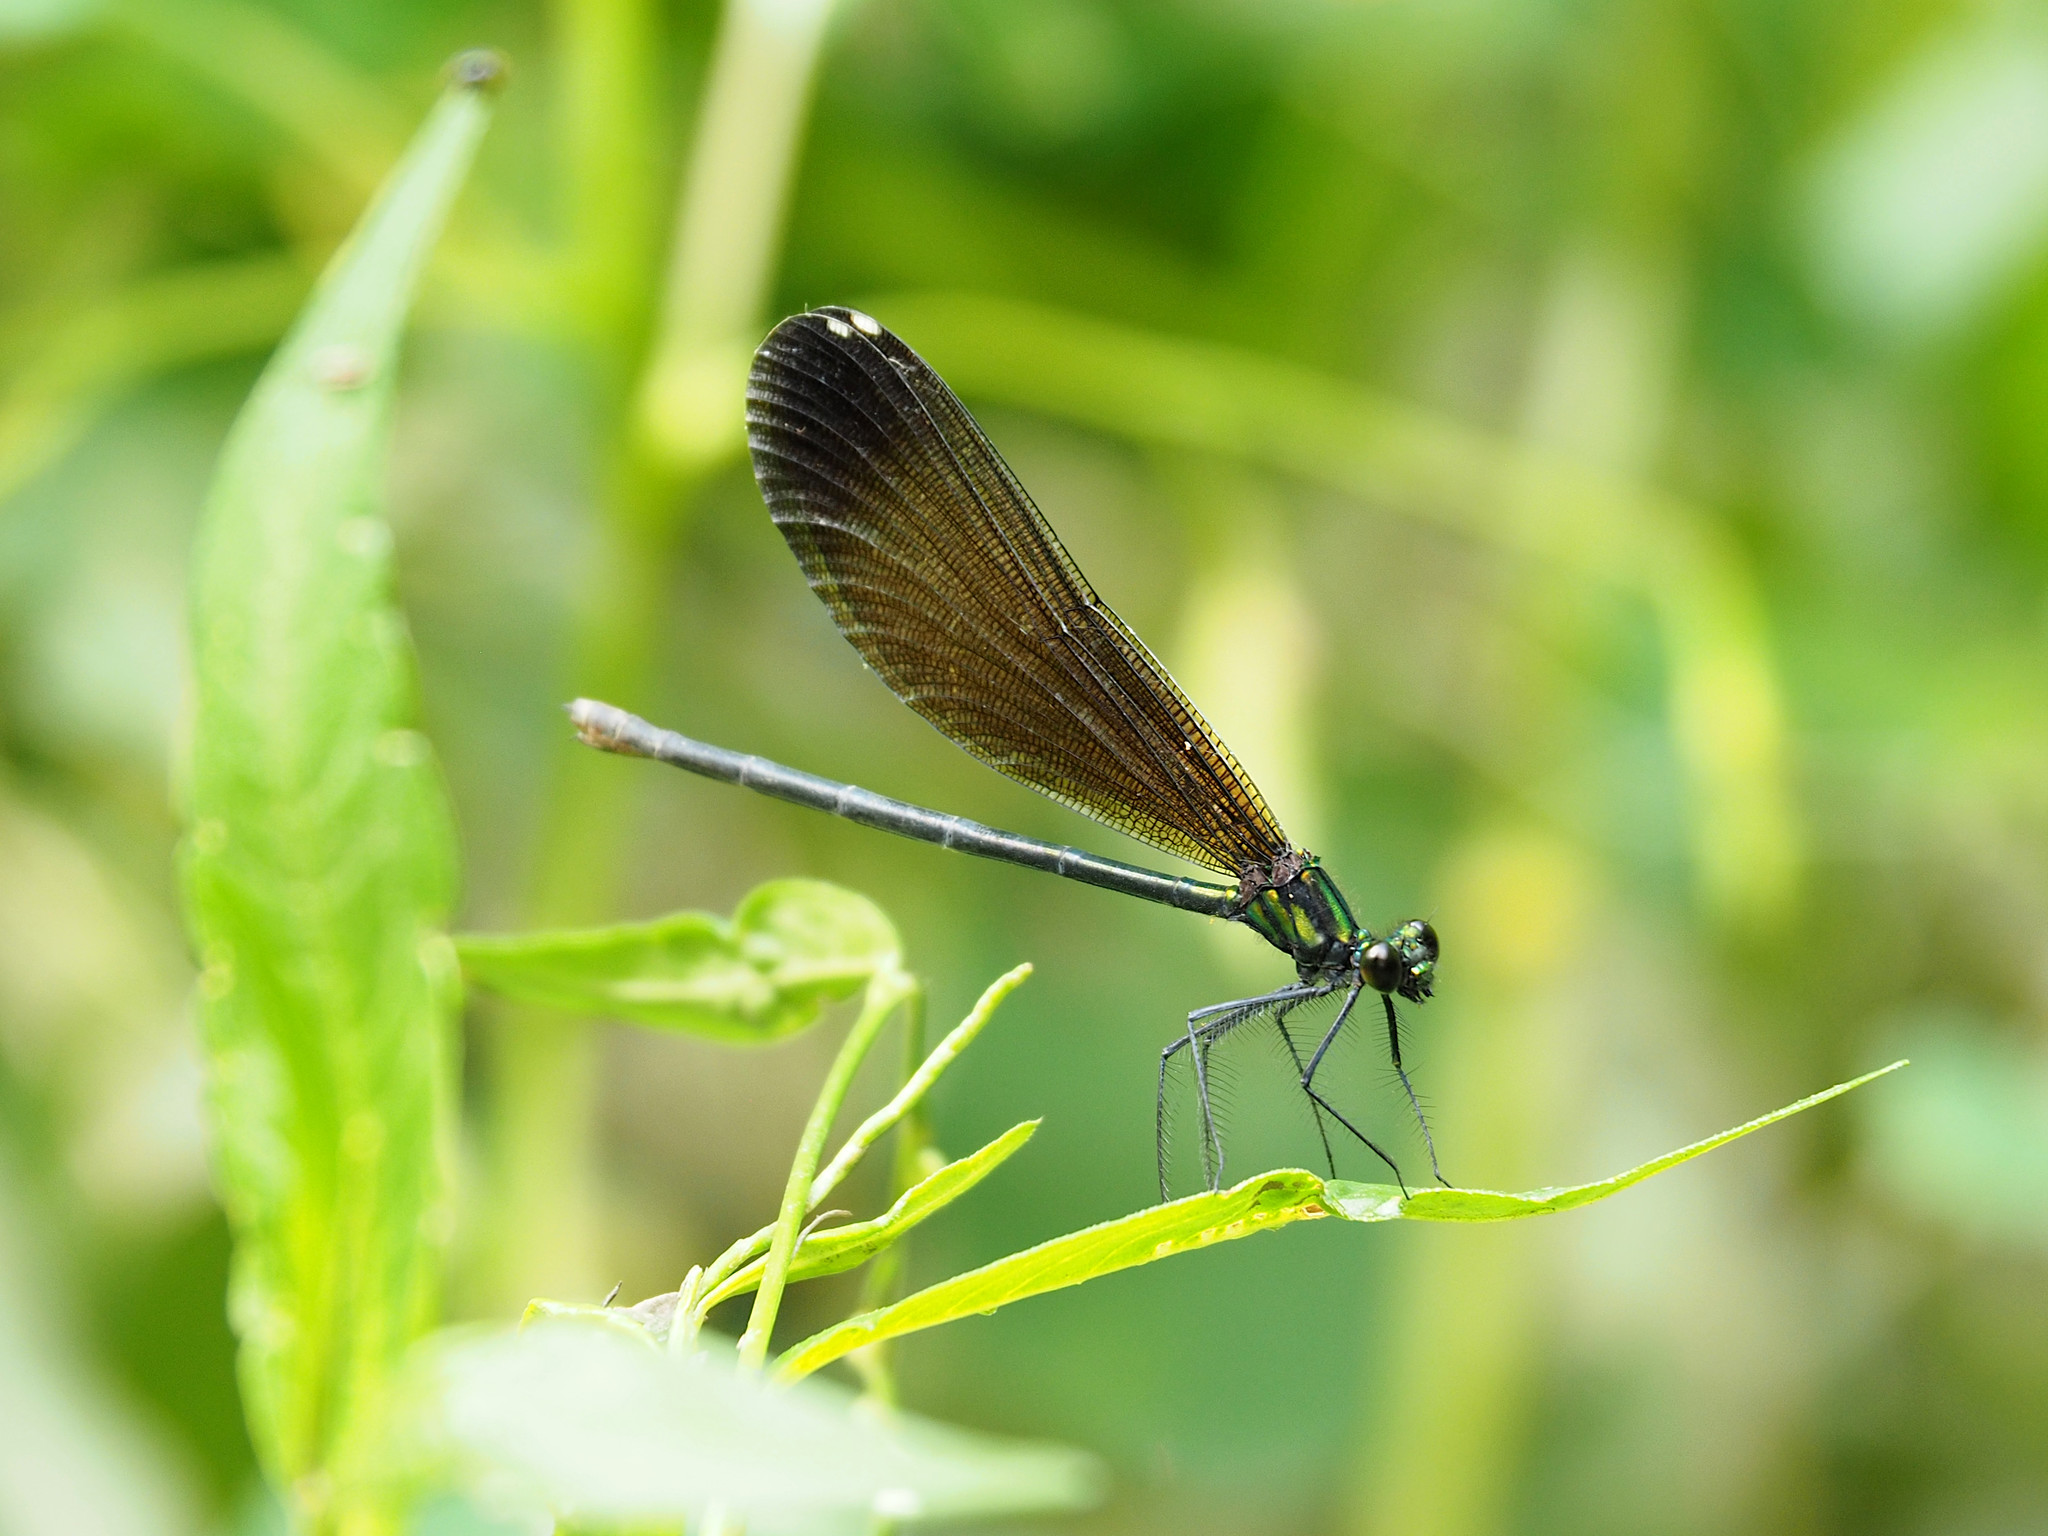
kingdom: Animalia
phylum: Arthropoda
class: Insecta
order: Odonata
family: Calopterygidae
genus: Calopteryx
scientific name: Calopteryx maculata
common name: Ebony jewelwing
